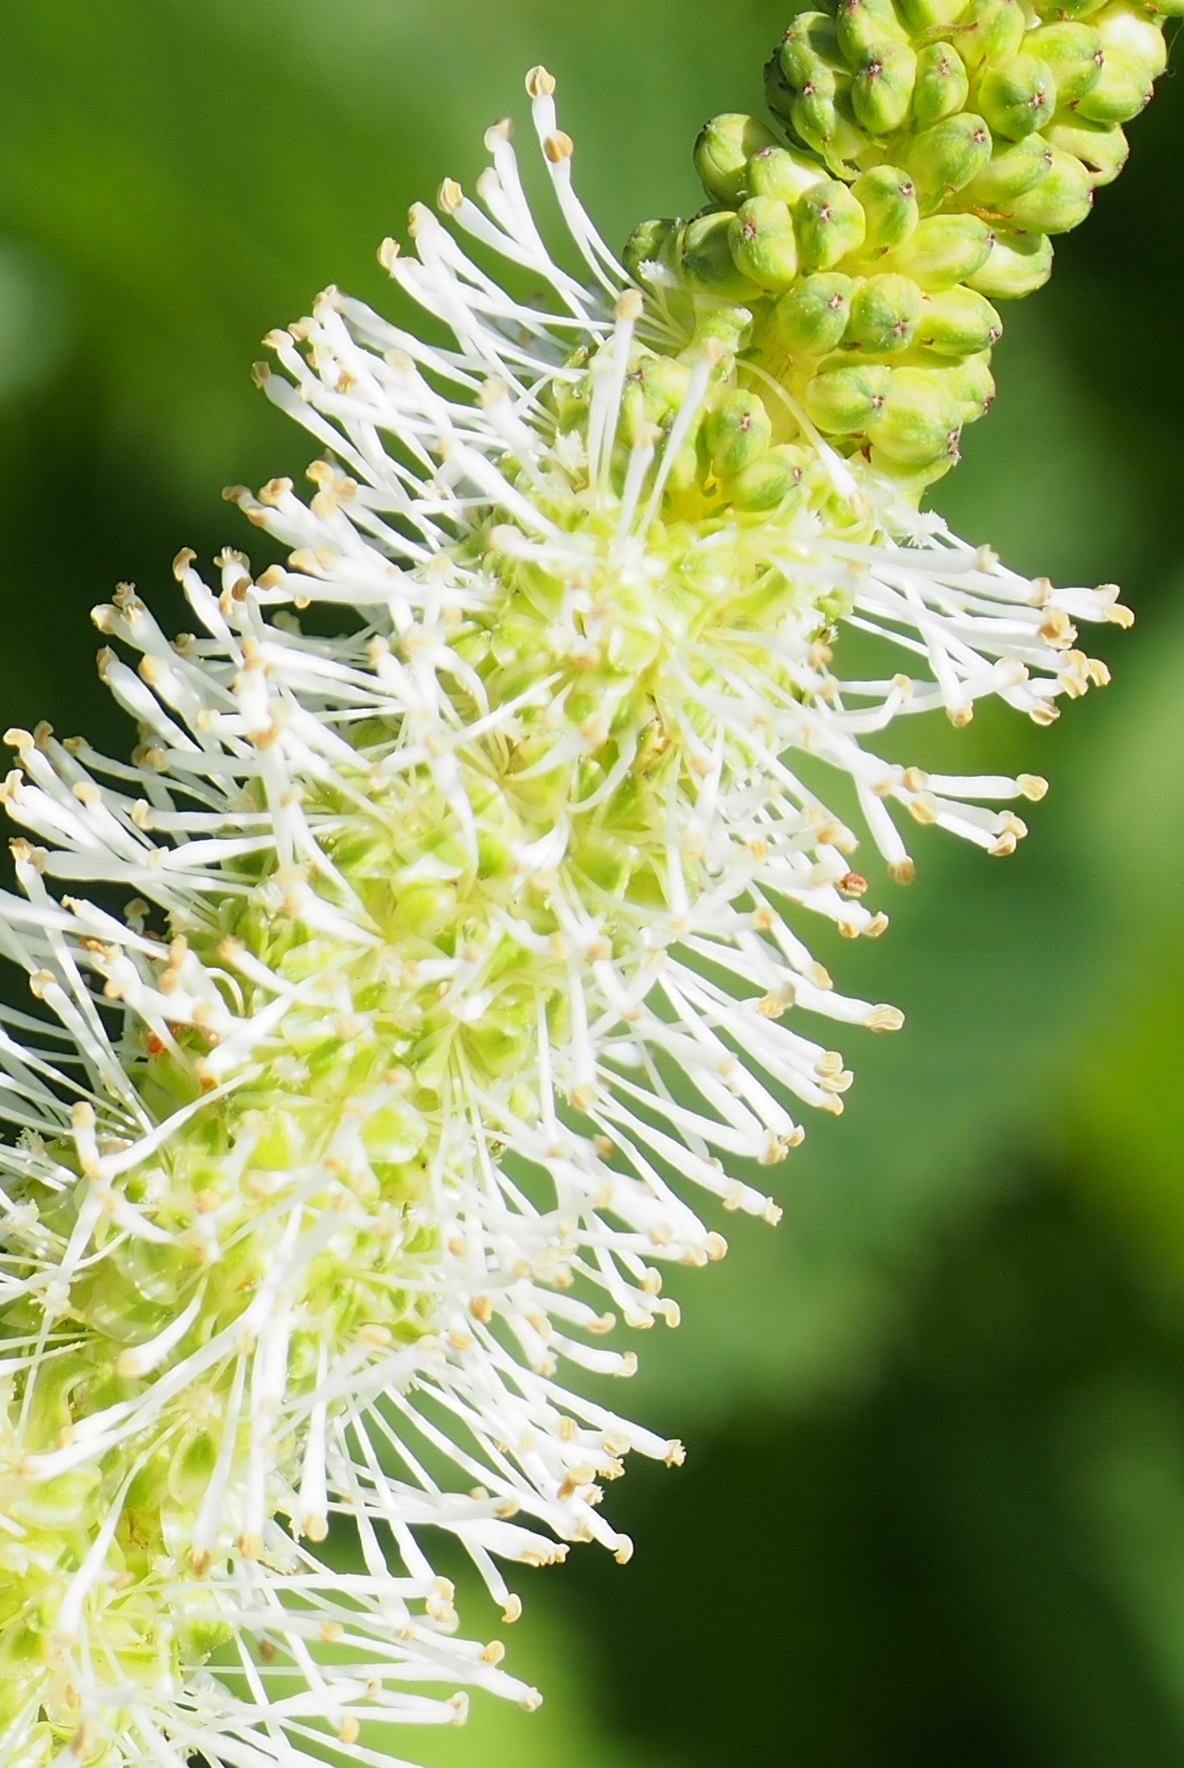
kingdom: Plantae
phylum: Tracheophyta
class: Magnoliopsida
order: Rosales
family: Rosaceae
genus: Sanguisorba
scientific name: Sanguisorba stipulata
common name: Sitka burnet
